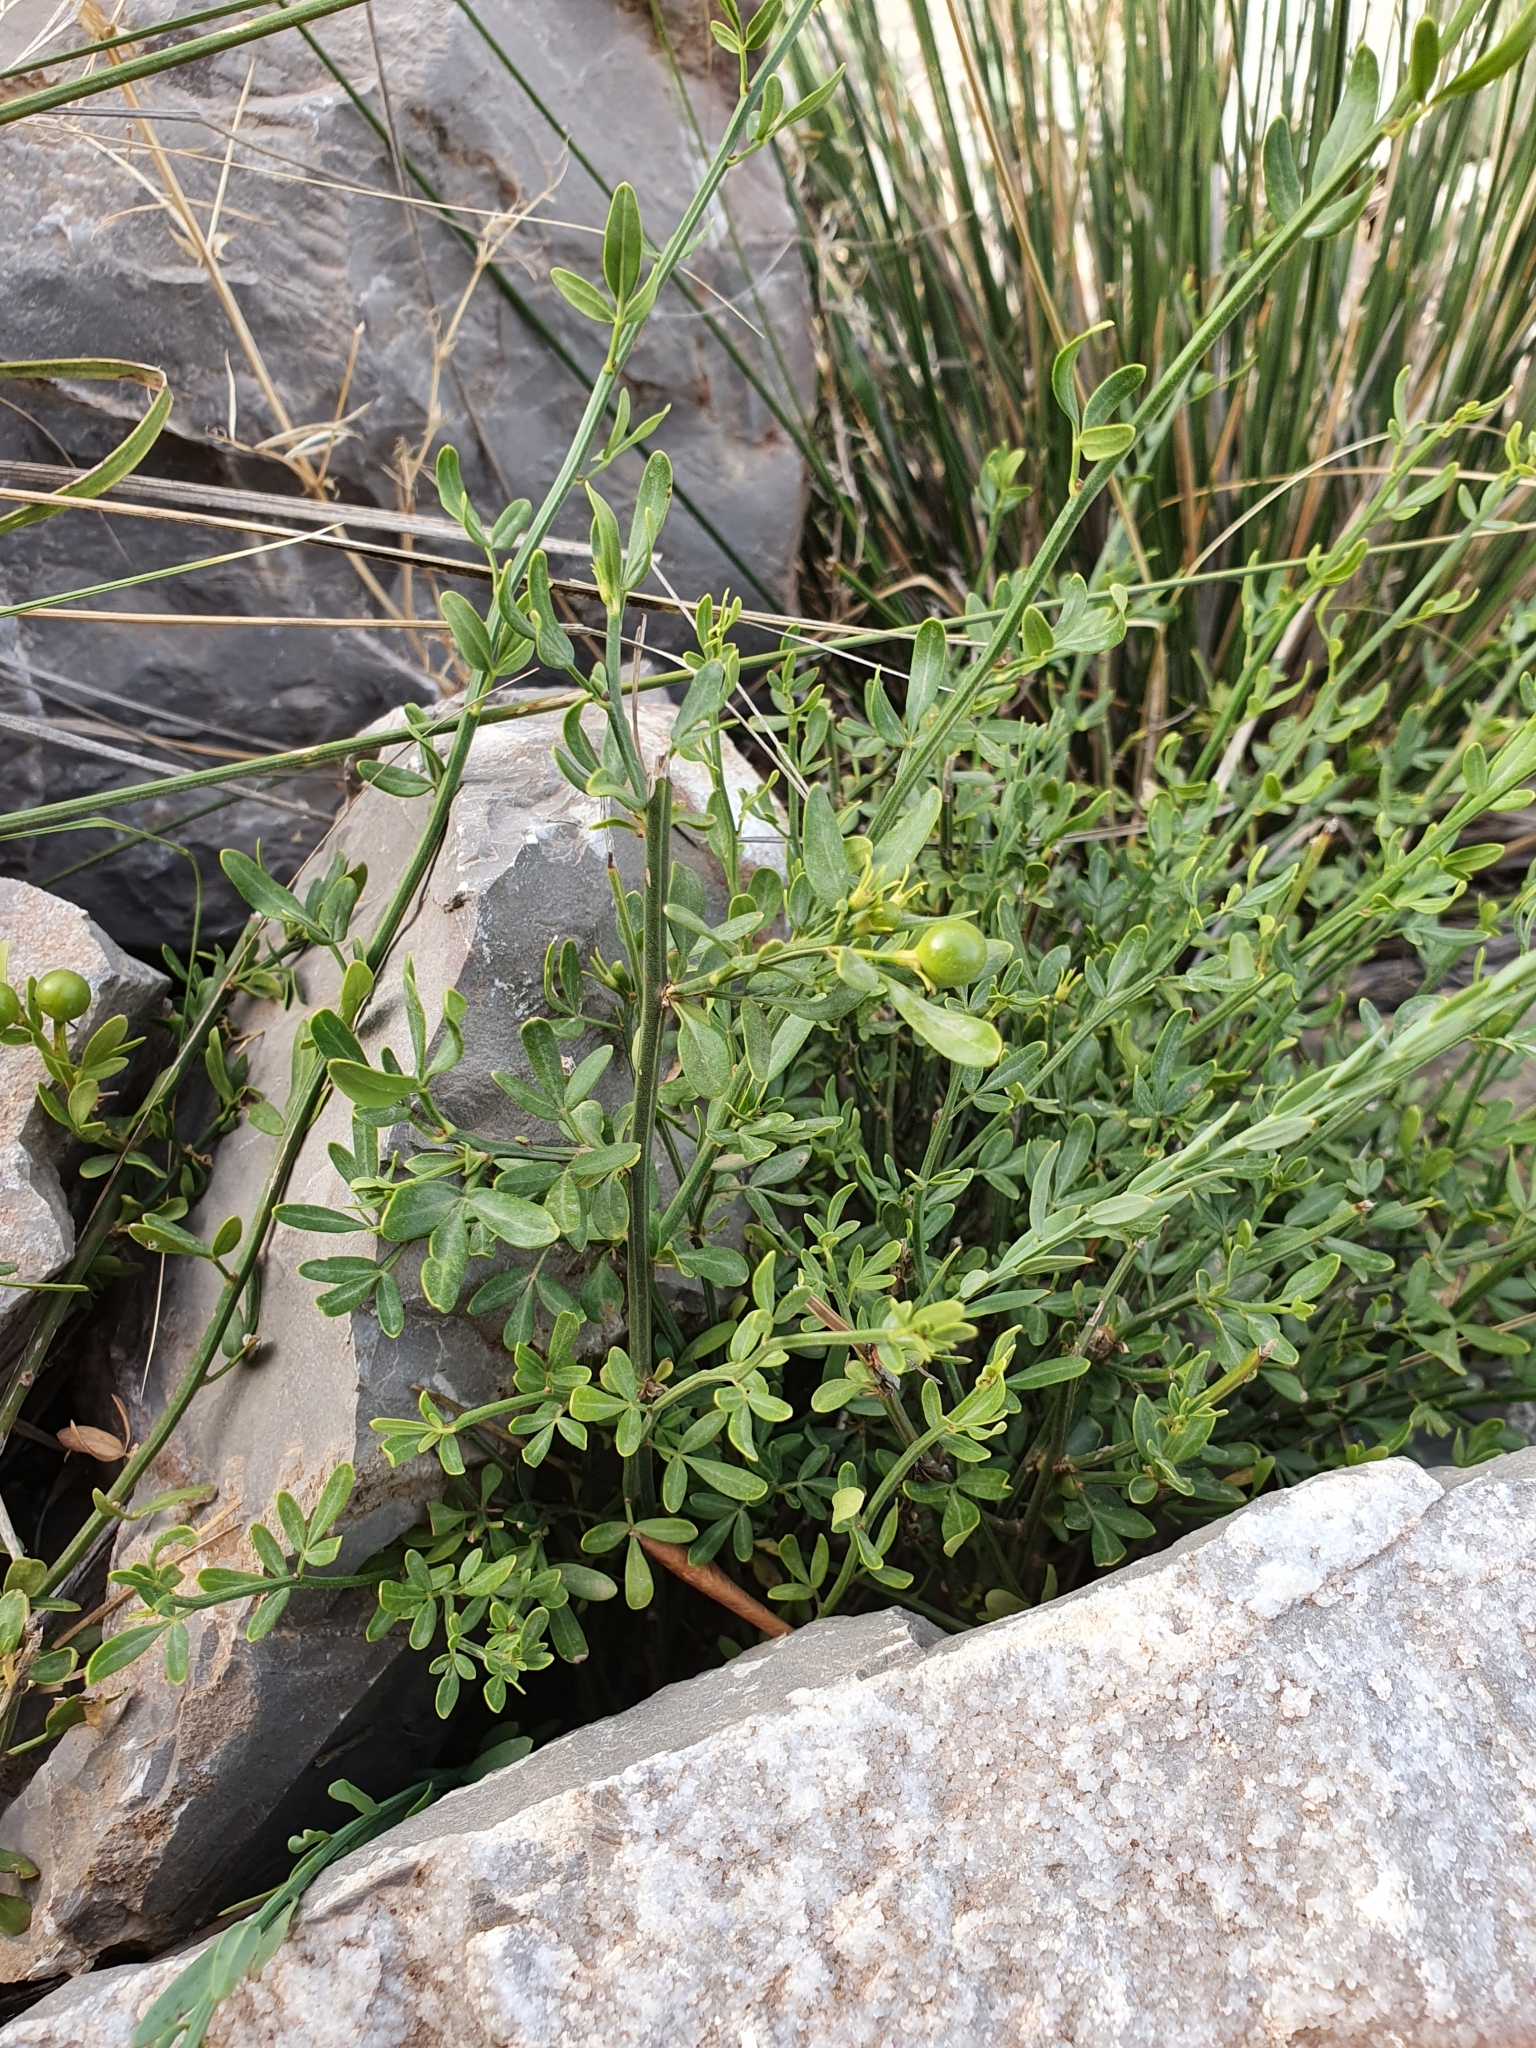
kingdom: Plantae
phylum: Tracheophyta
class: Magnoliopsida
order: Lamiales
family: Oleaceae
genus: Chrysojasminum
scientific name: Chrysojasminum fruticans
